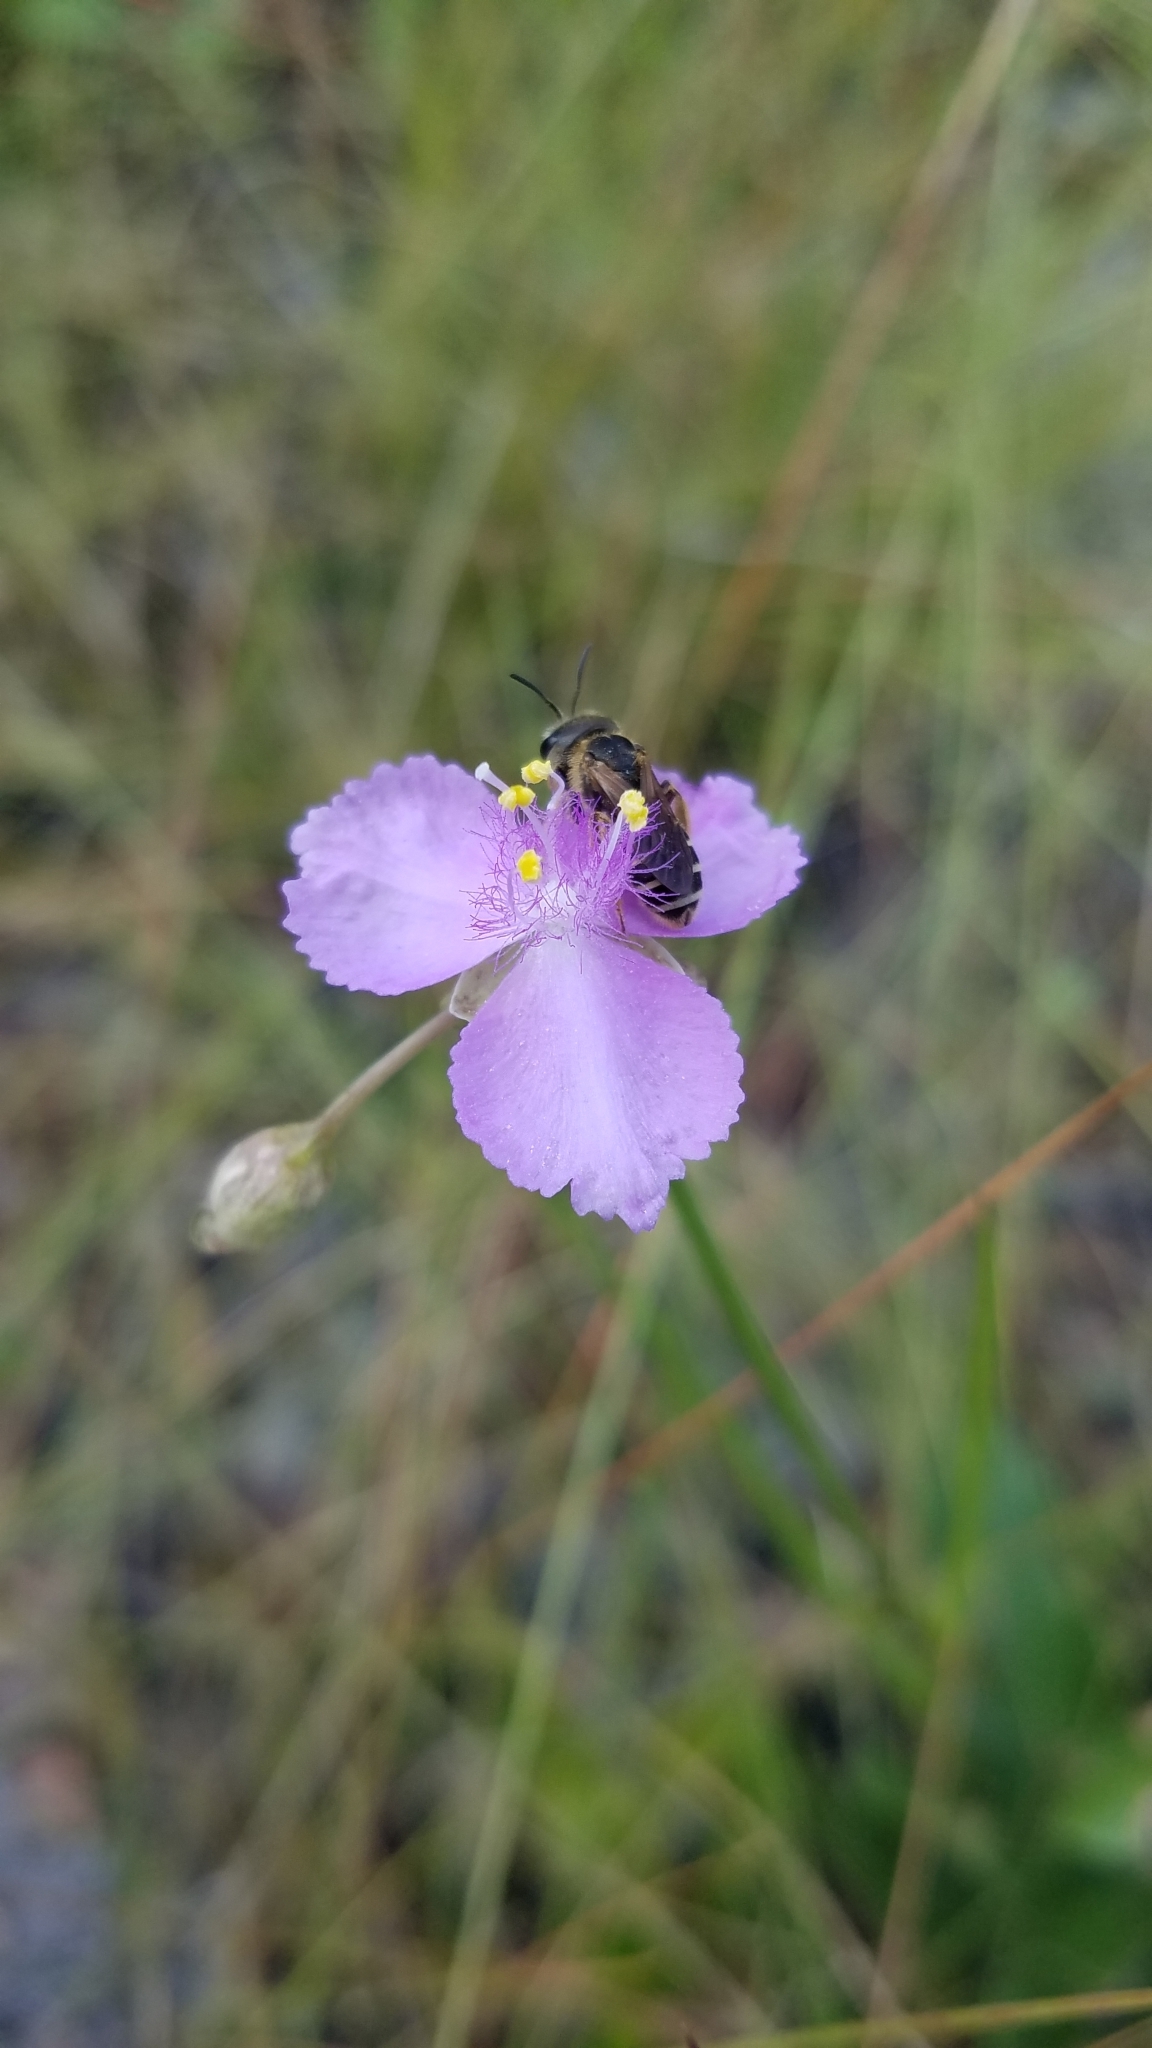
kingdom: Plantae
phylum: Tracheophyta
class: Liliopsida
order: Commelinales
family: Commelinaceae
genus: Callisia
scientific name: Callisia ornata
